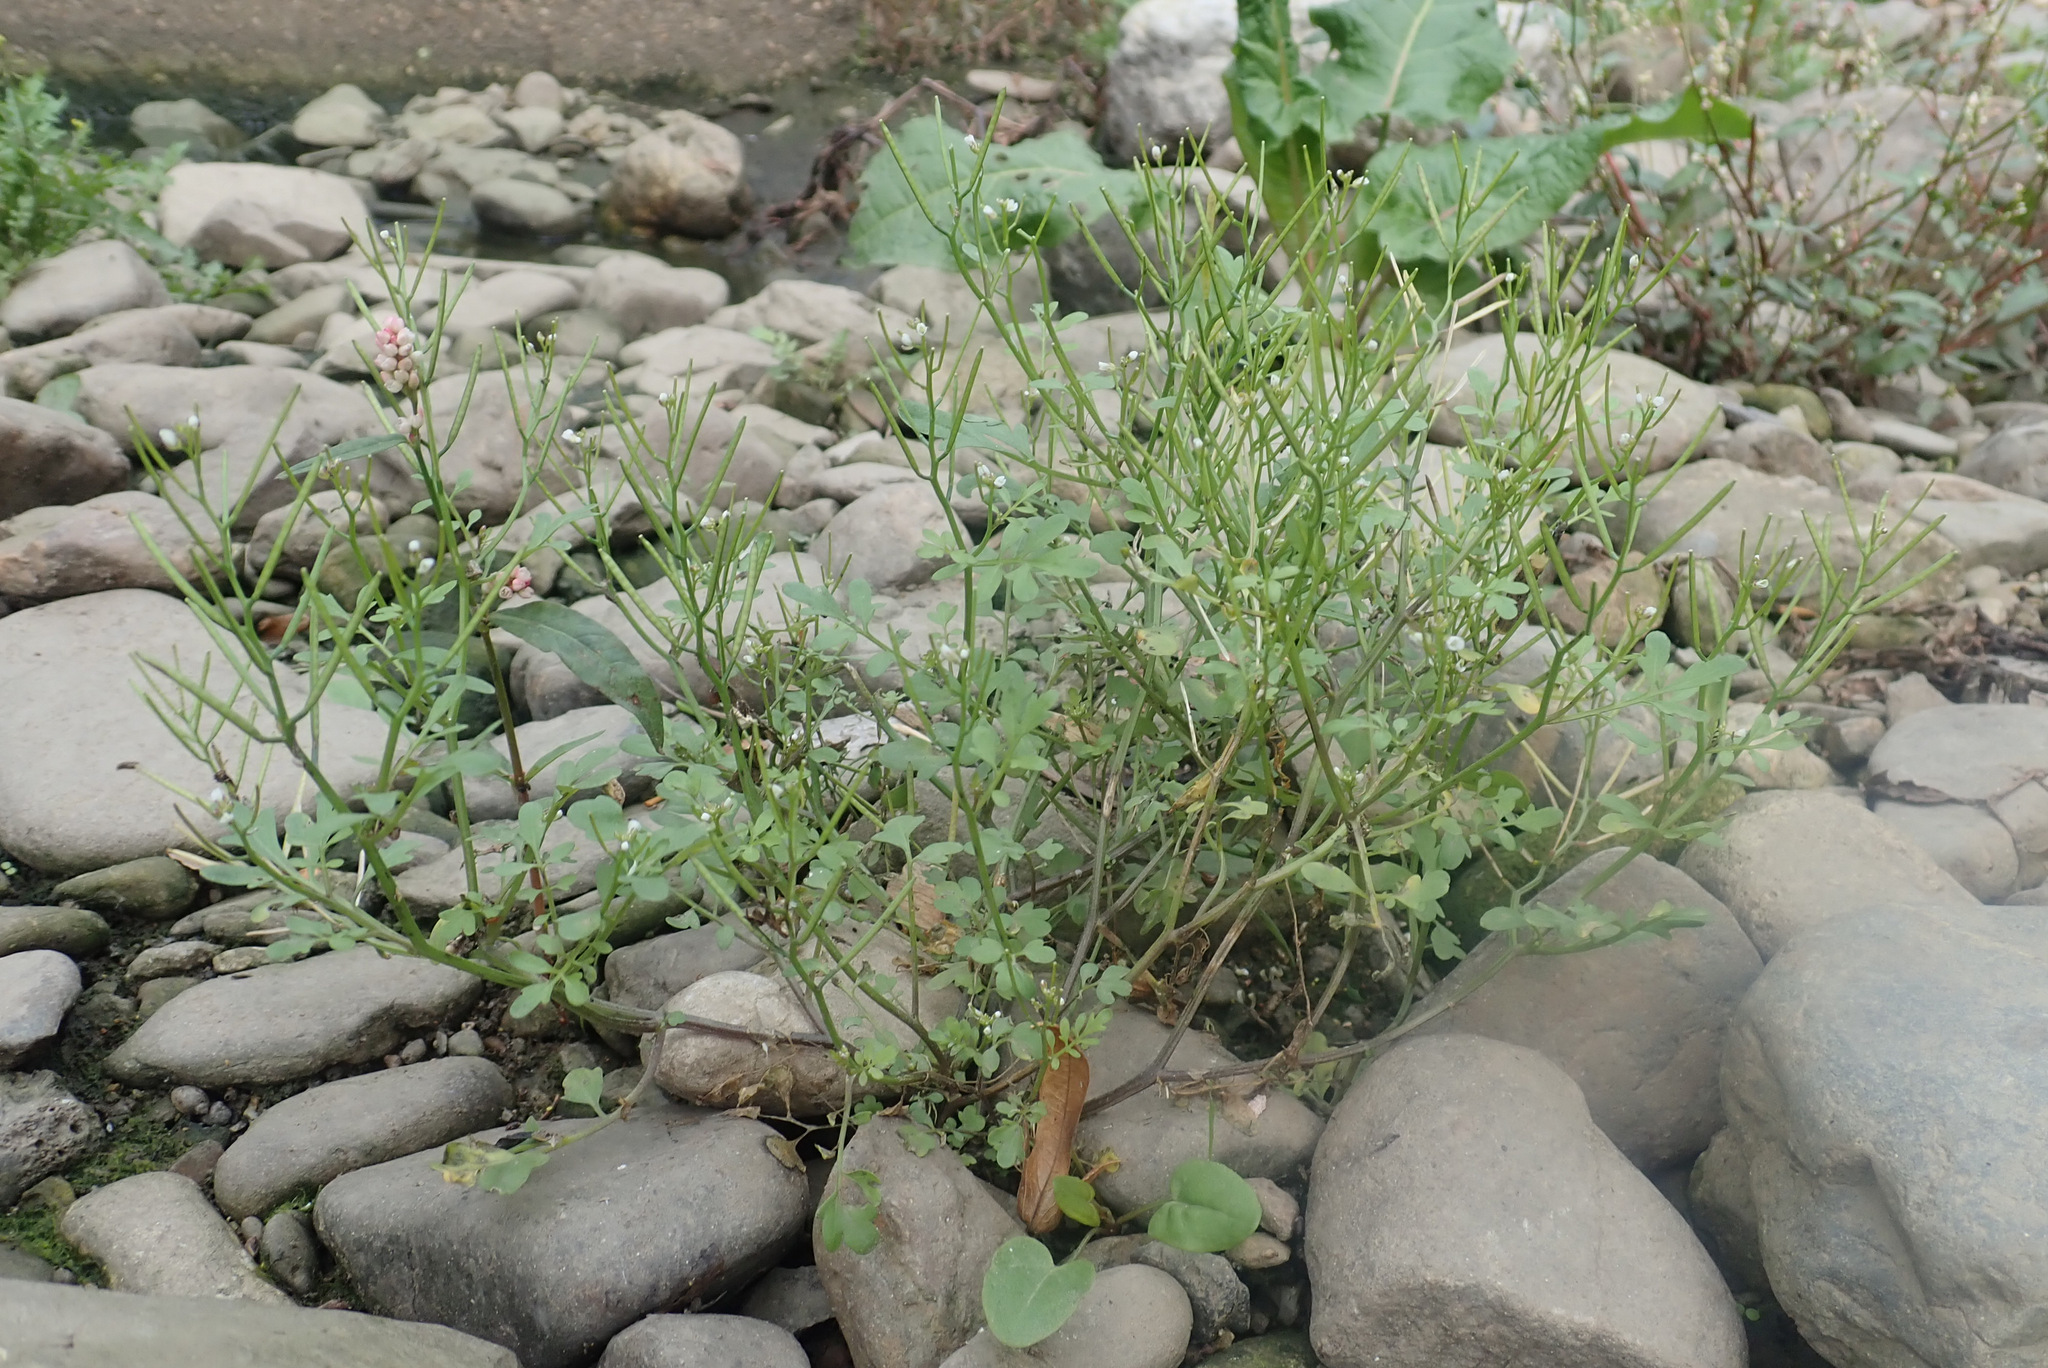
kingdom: Plantae
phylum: Tracheophyta
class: Magnoliopsida
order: Brassicales
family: Brassicaceae
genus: Cardamine
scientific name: Cardamine occulta
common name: Asian wavy bittercress
